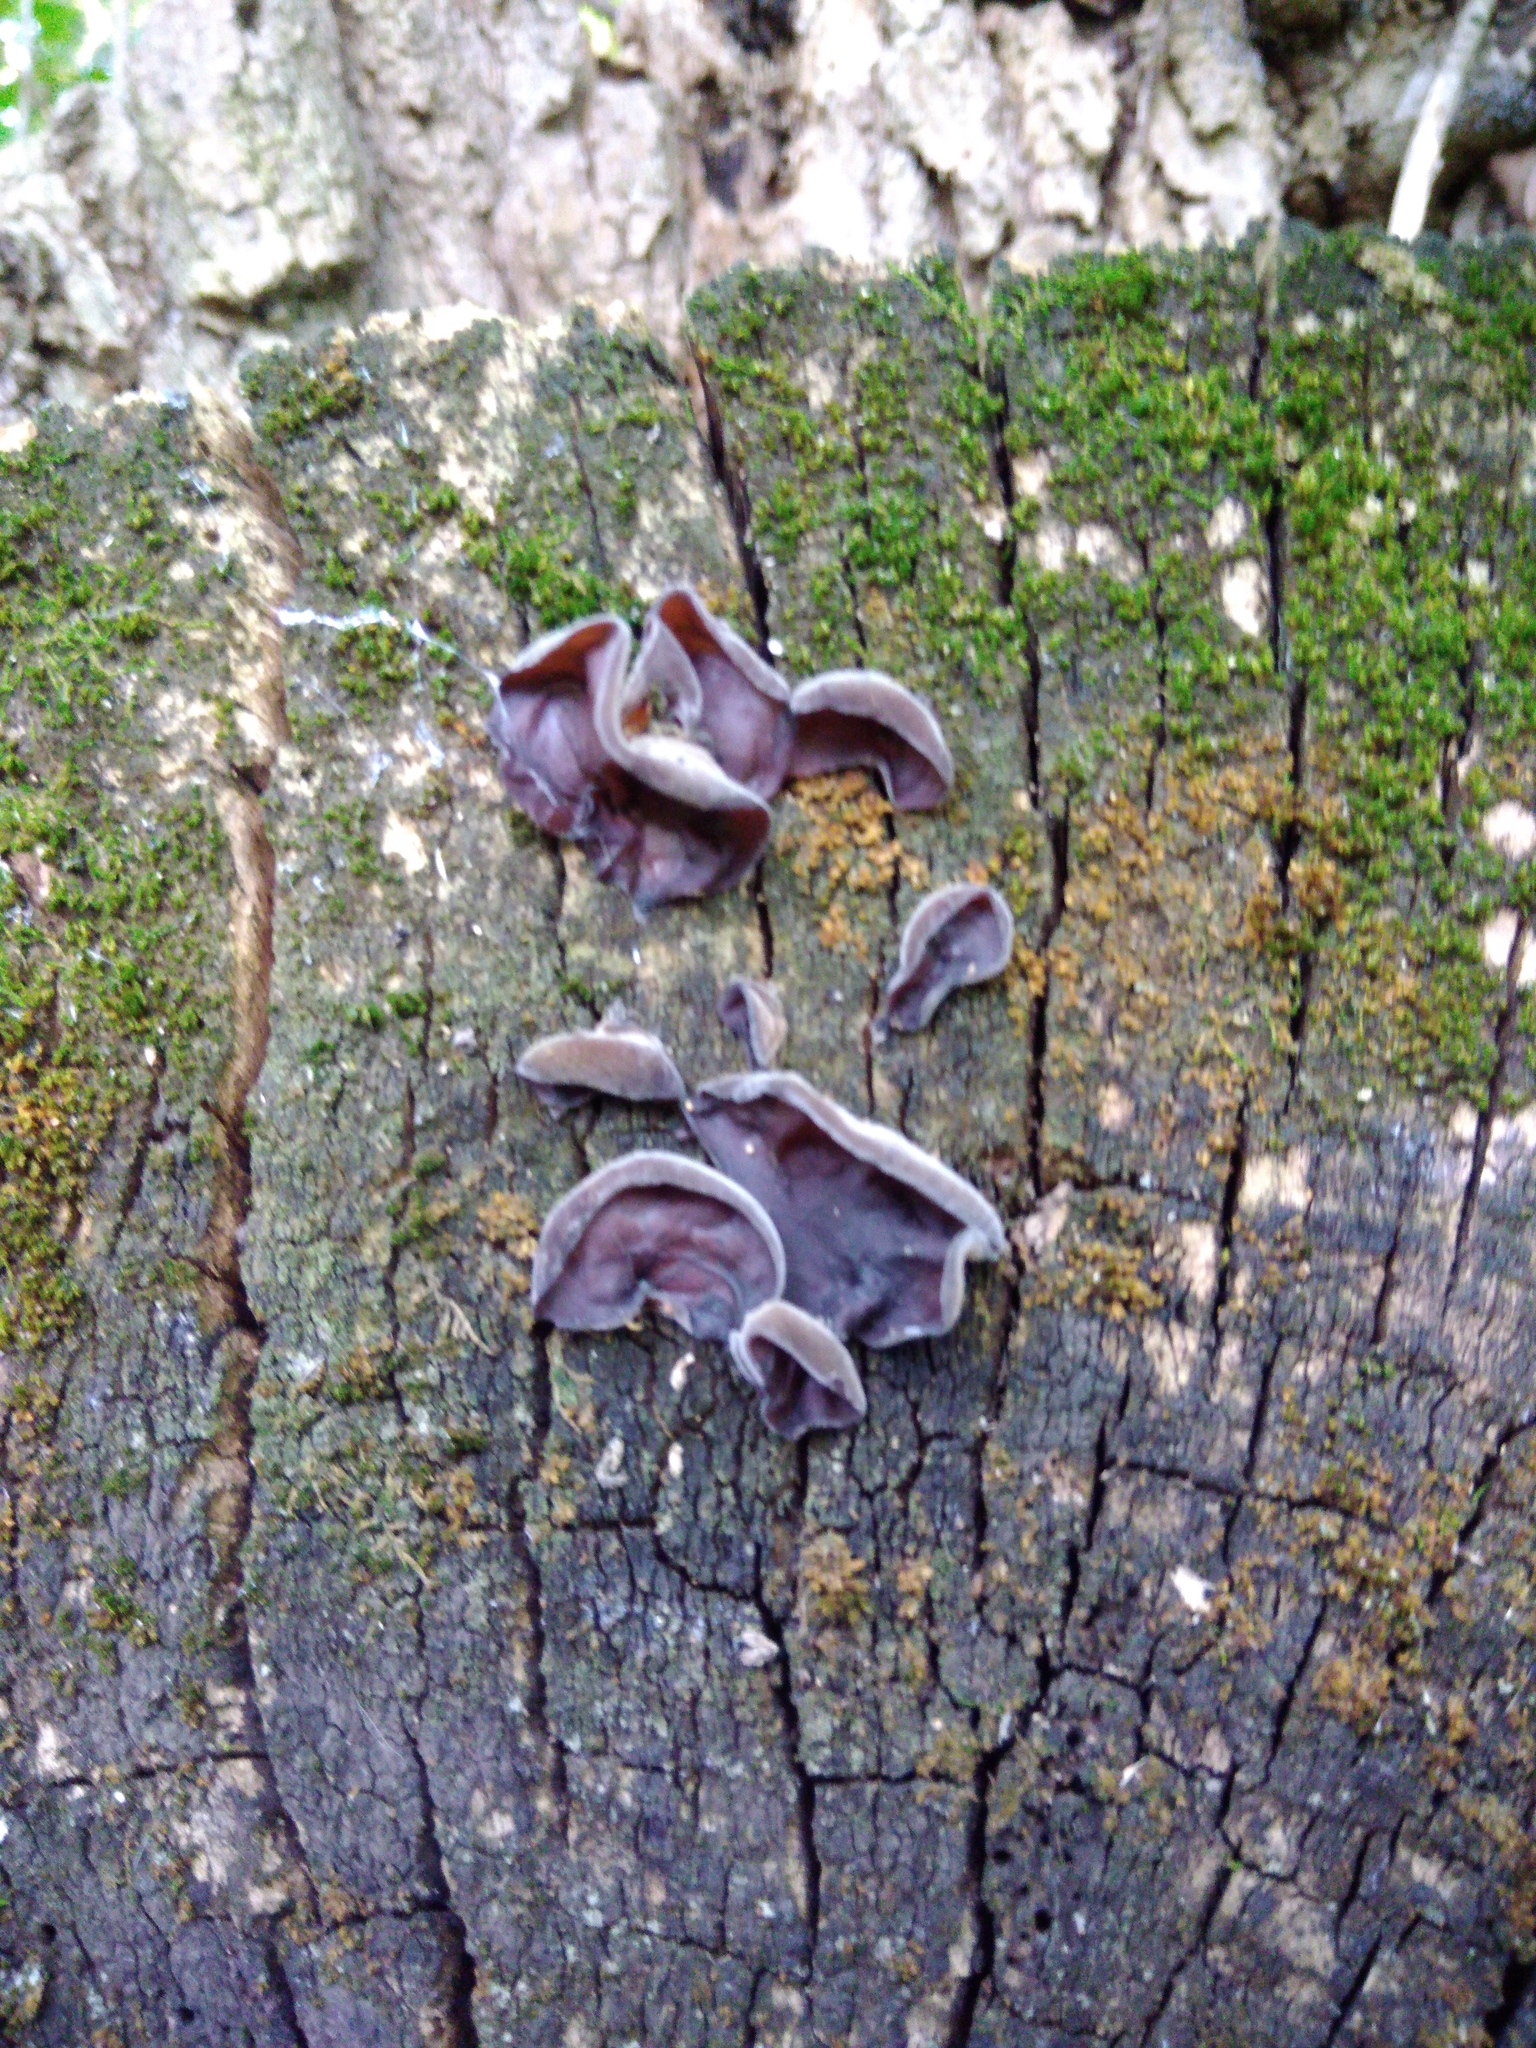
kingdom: Fungi
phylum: Basidiomycota
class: Agaricomycetes
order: Auriculariales
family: Auriculariaceae
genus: Auricularia
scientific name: Auricularia auricula-judae
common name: Jelly ear
